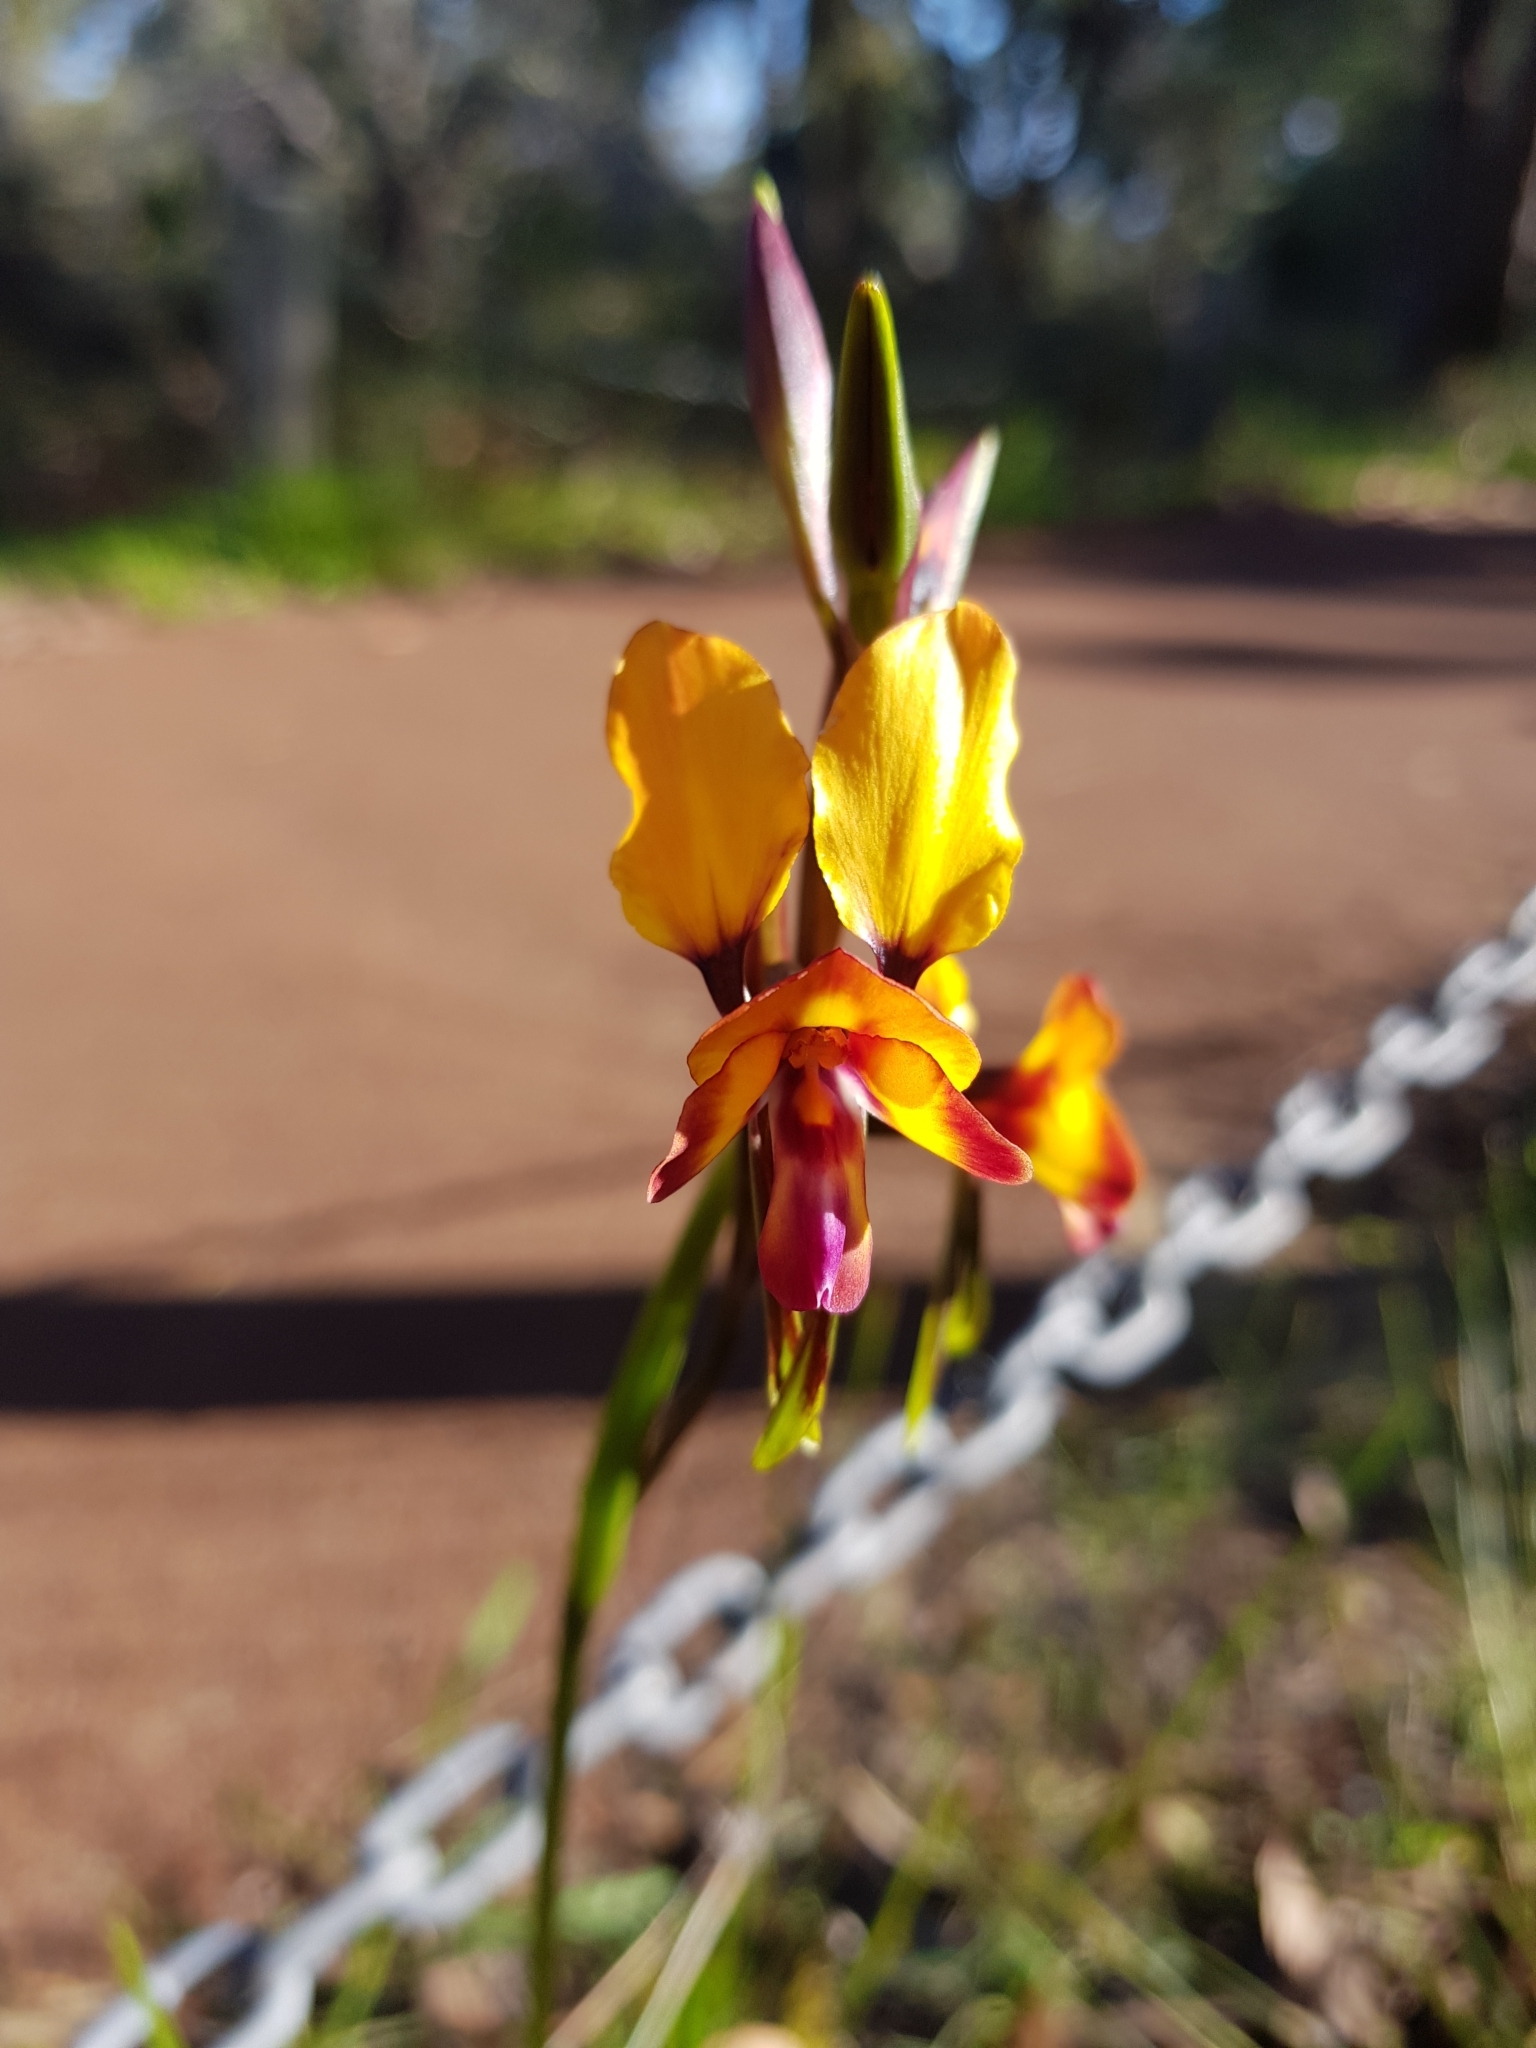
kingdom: Plantae
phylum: Tracheophyta
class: Liliopsida
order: Asparagales
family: Orchidaceae
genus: Diuris
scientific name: Diuris magnifica
